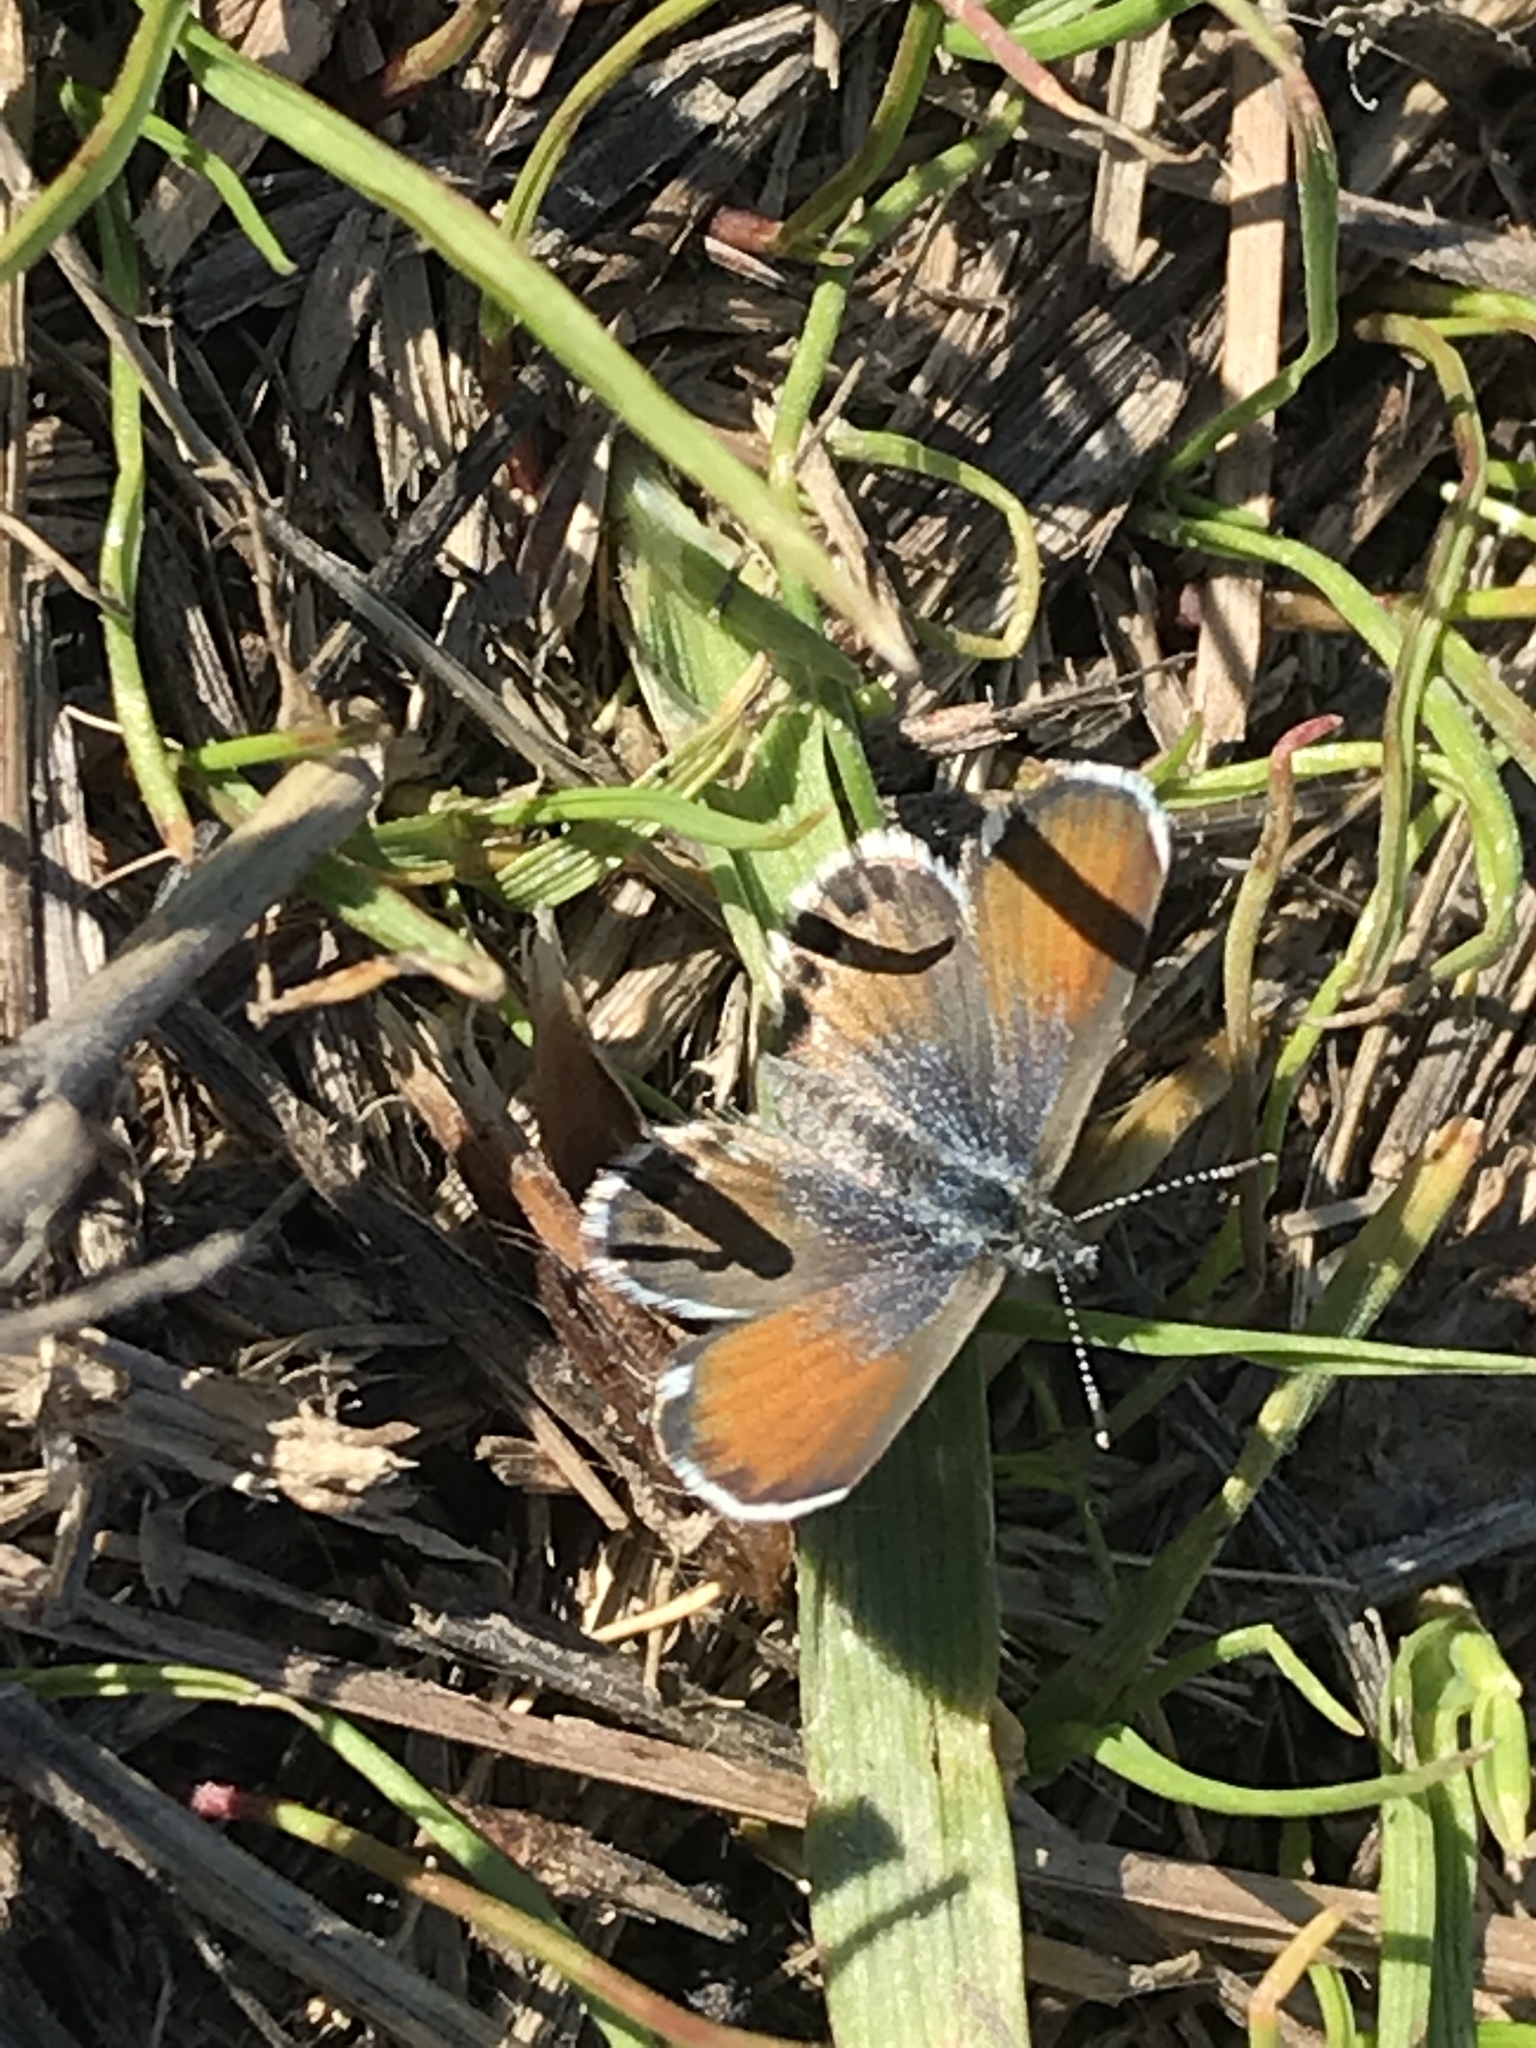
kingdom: Animalia
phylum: Arthropoda
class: Insecta
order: Lepidoptera
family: Lycaenidae
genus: Brephidium
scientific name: Brephidium exilis
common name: Pygmy blue
